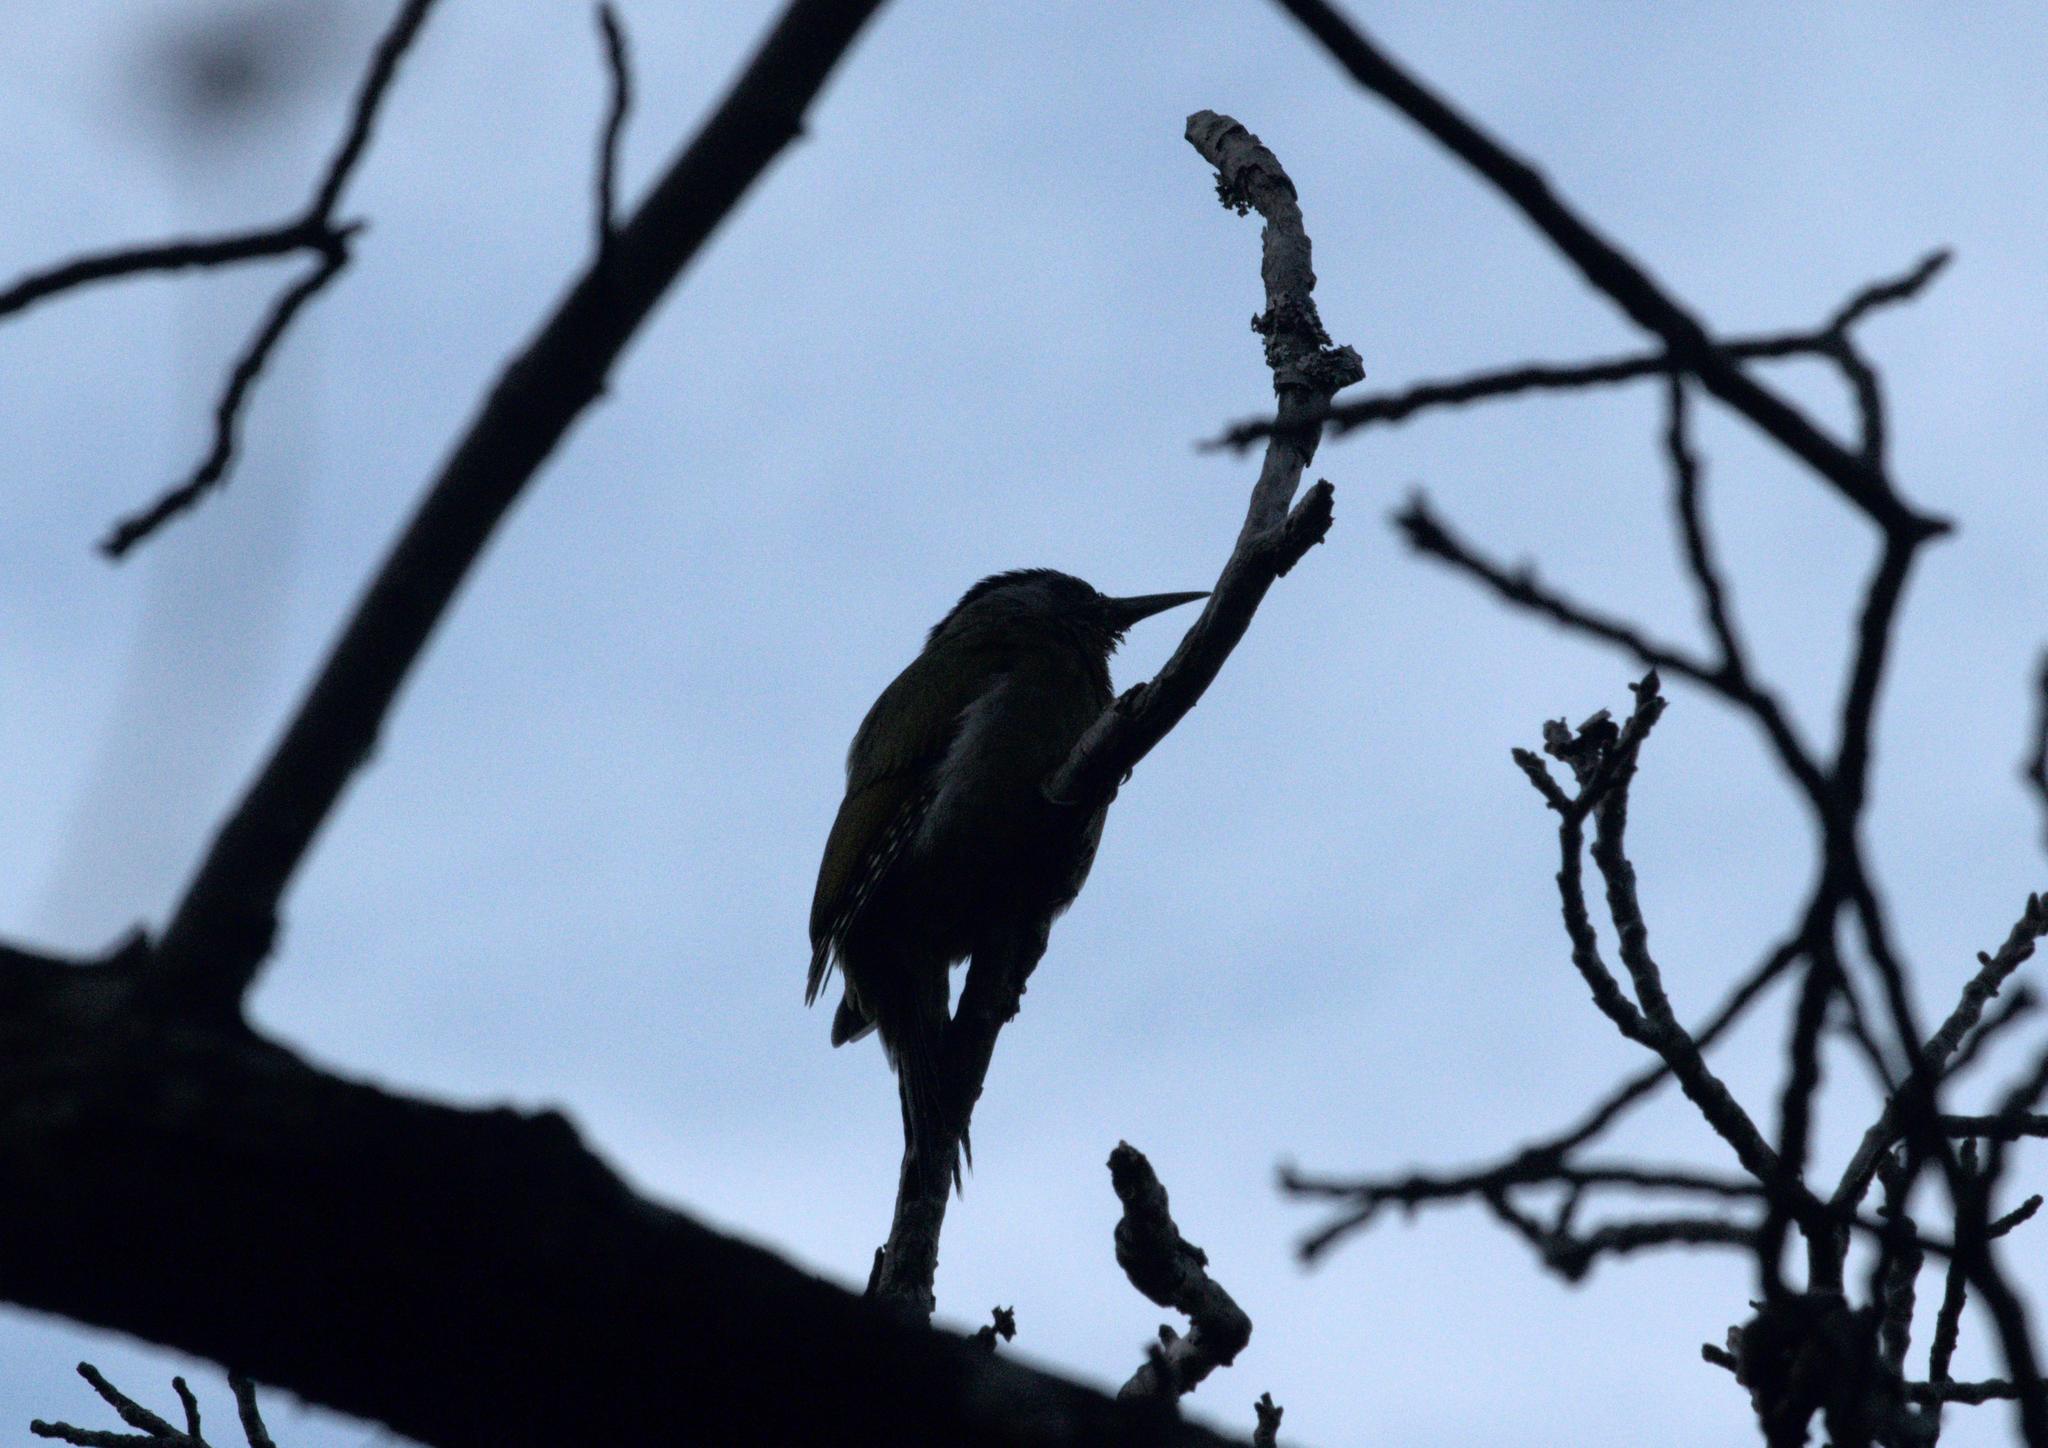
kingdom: Animalia
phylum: Chordata
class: Aves
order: Piciformes
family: Picidae
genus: Picus
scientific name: Picus canus
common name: Grey-headed woodpecker
